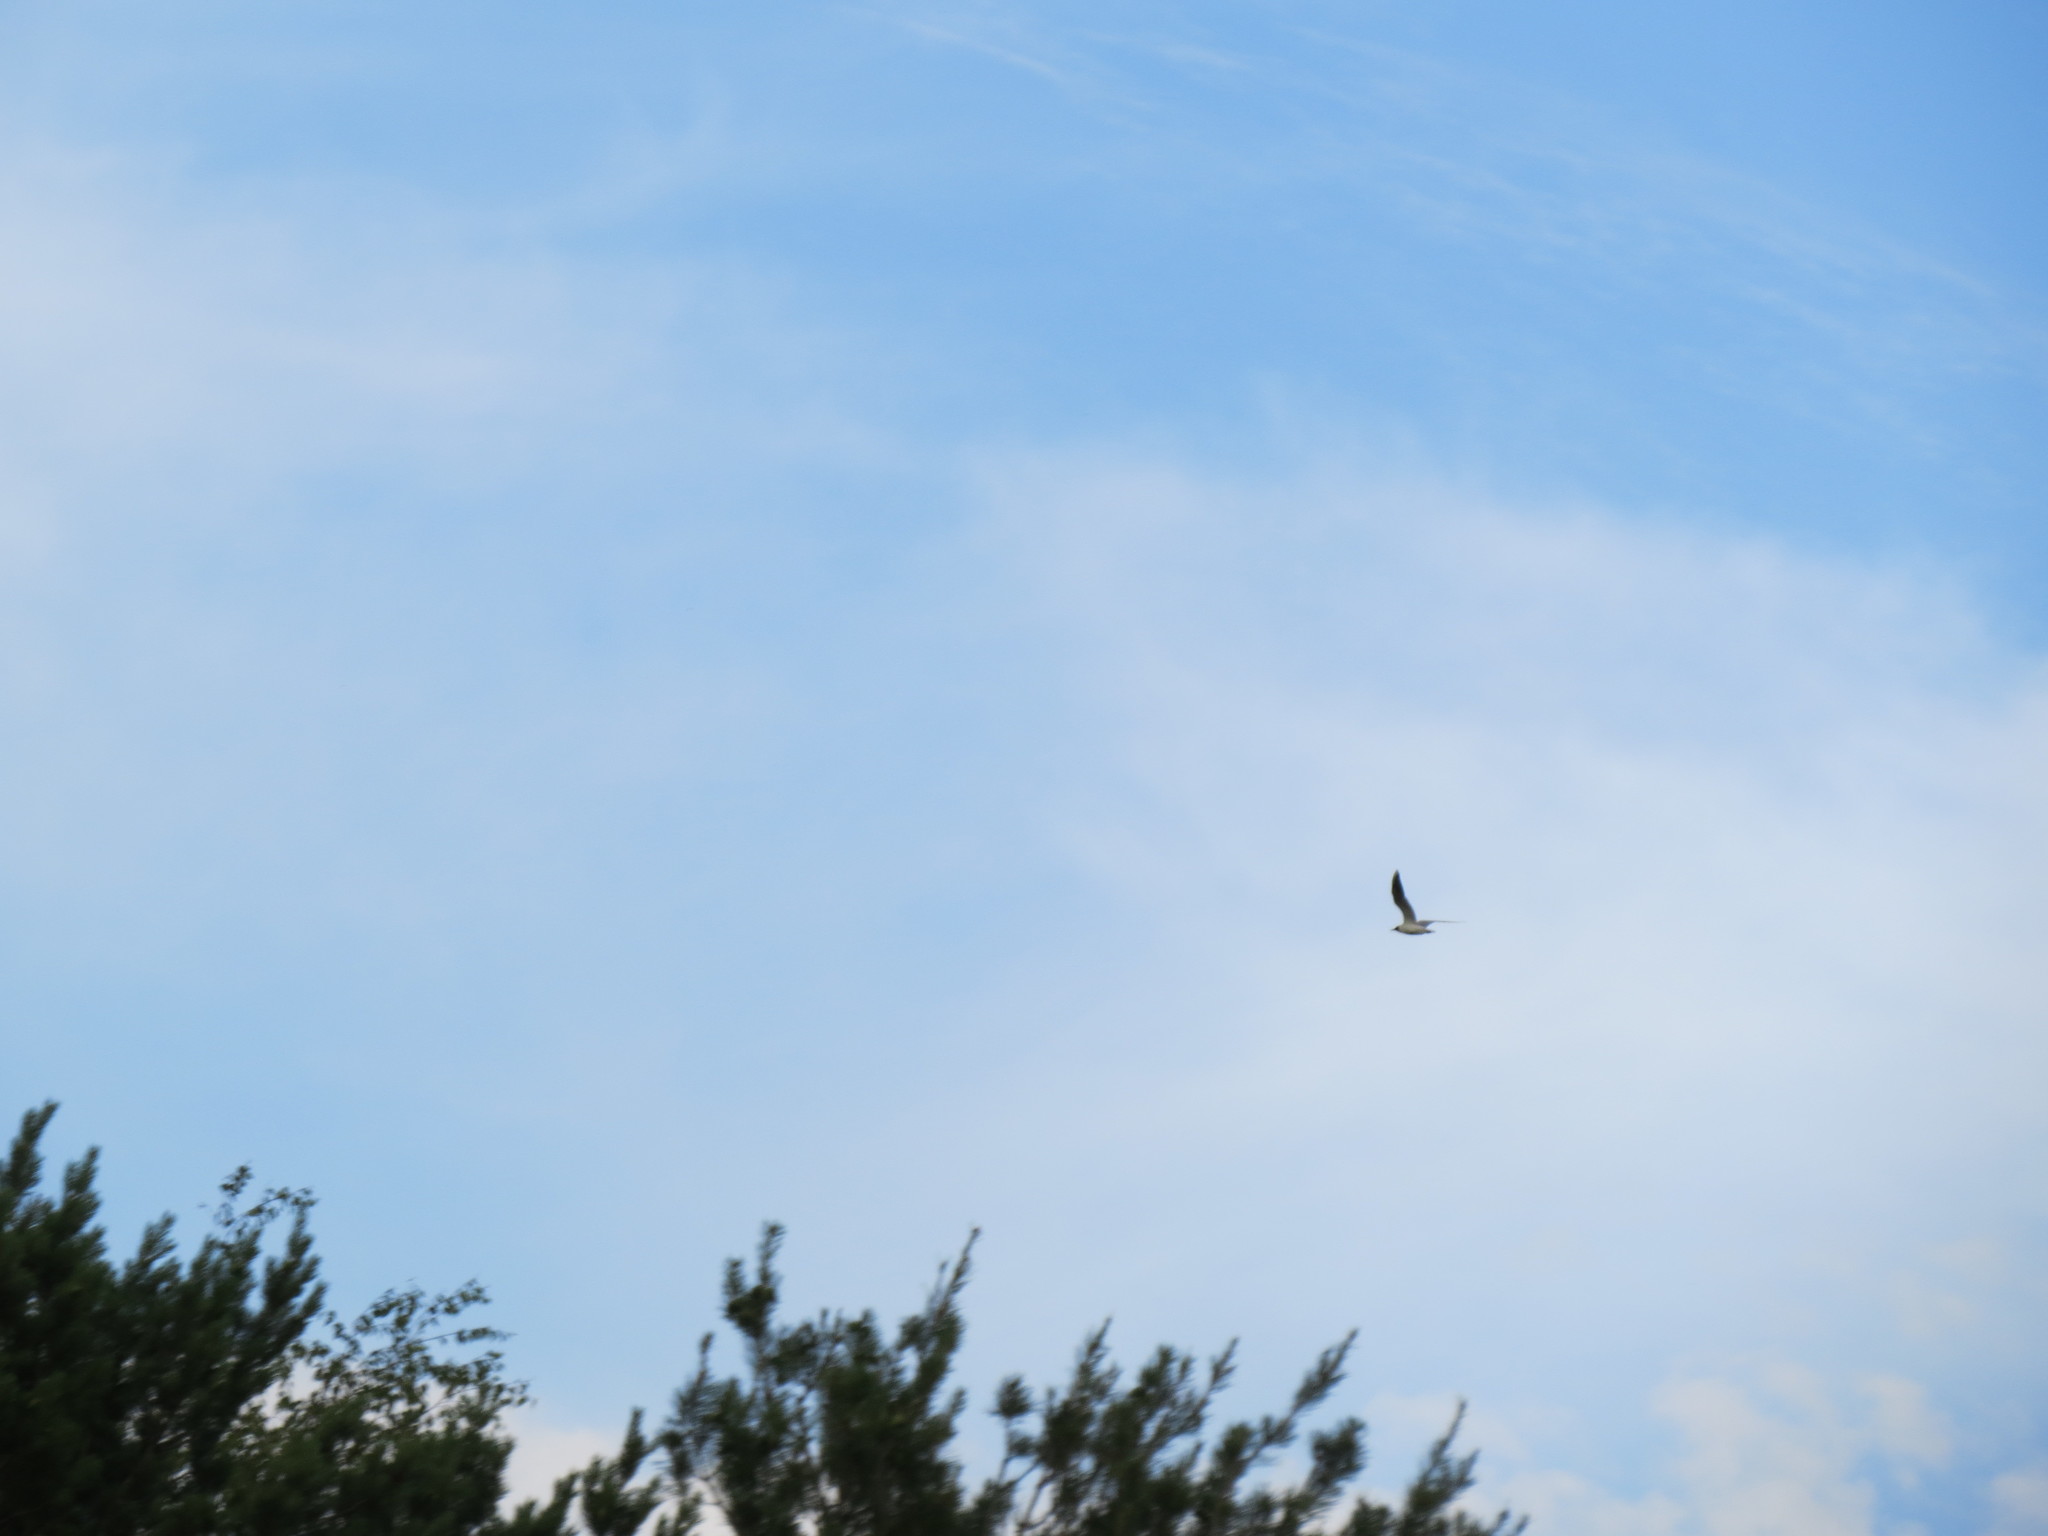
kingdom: Animalia
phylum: Chordata
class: Aves
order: Charadriiformes
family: Laridae
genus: Chroicocephalus
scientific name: Chroicocephalus ridibundus
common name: Black-headed gull
